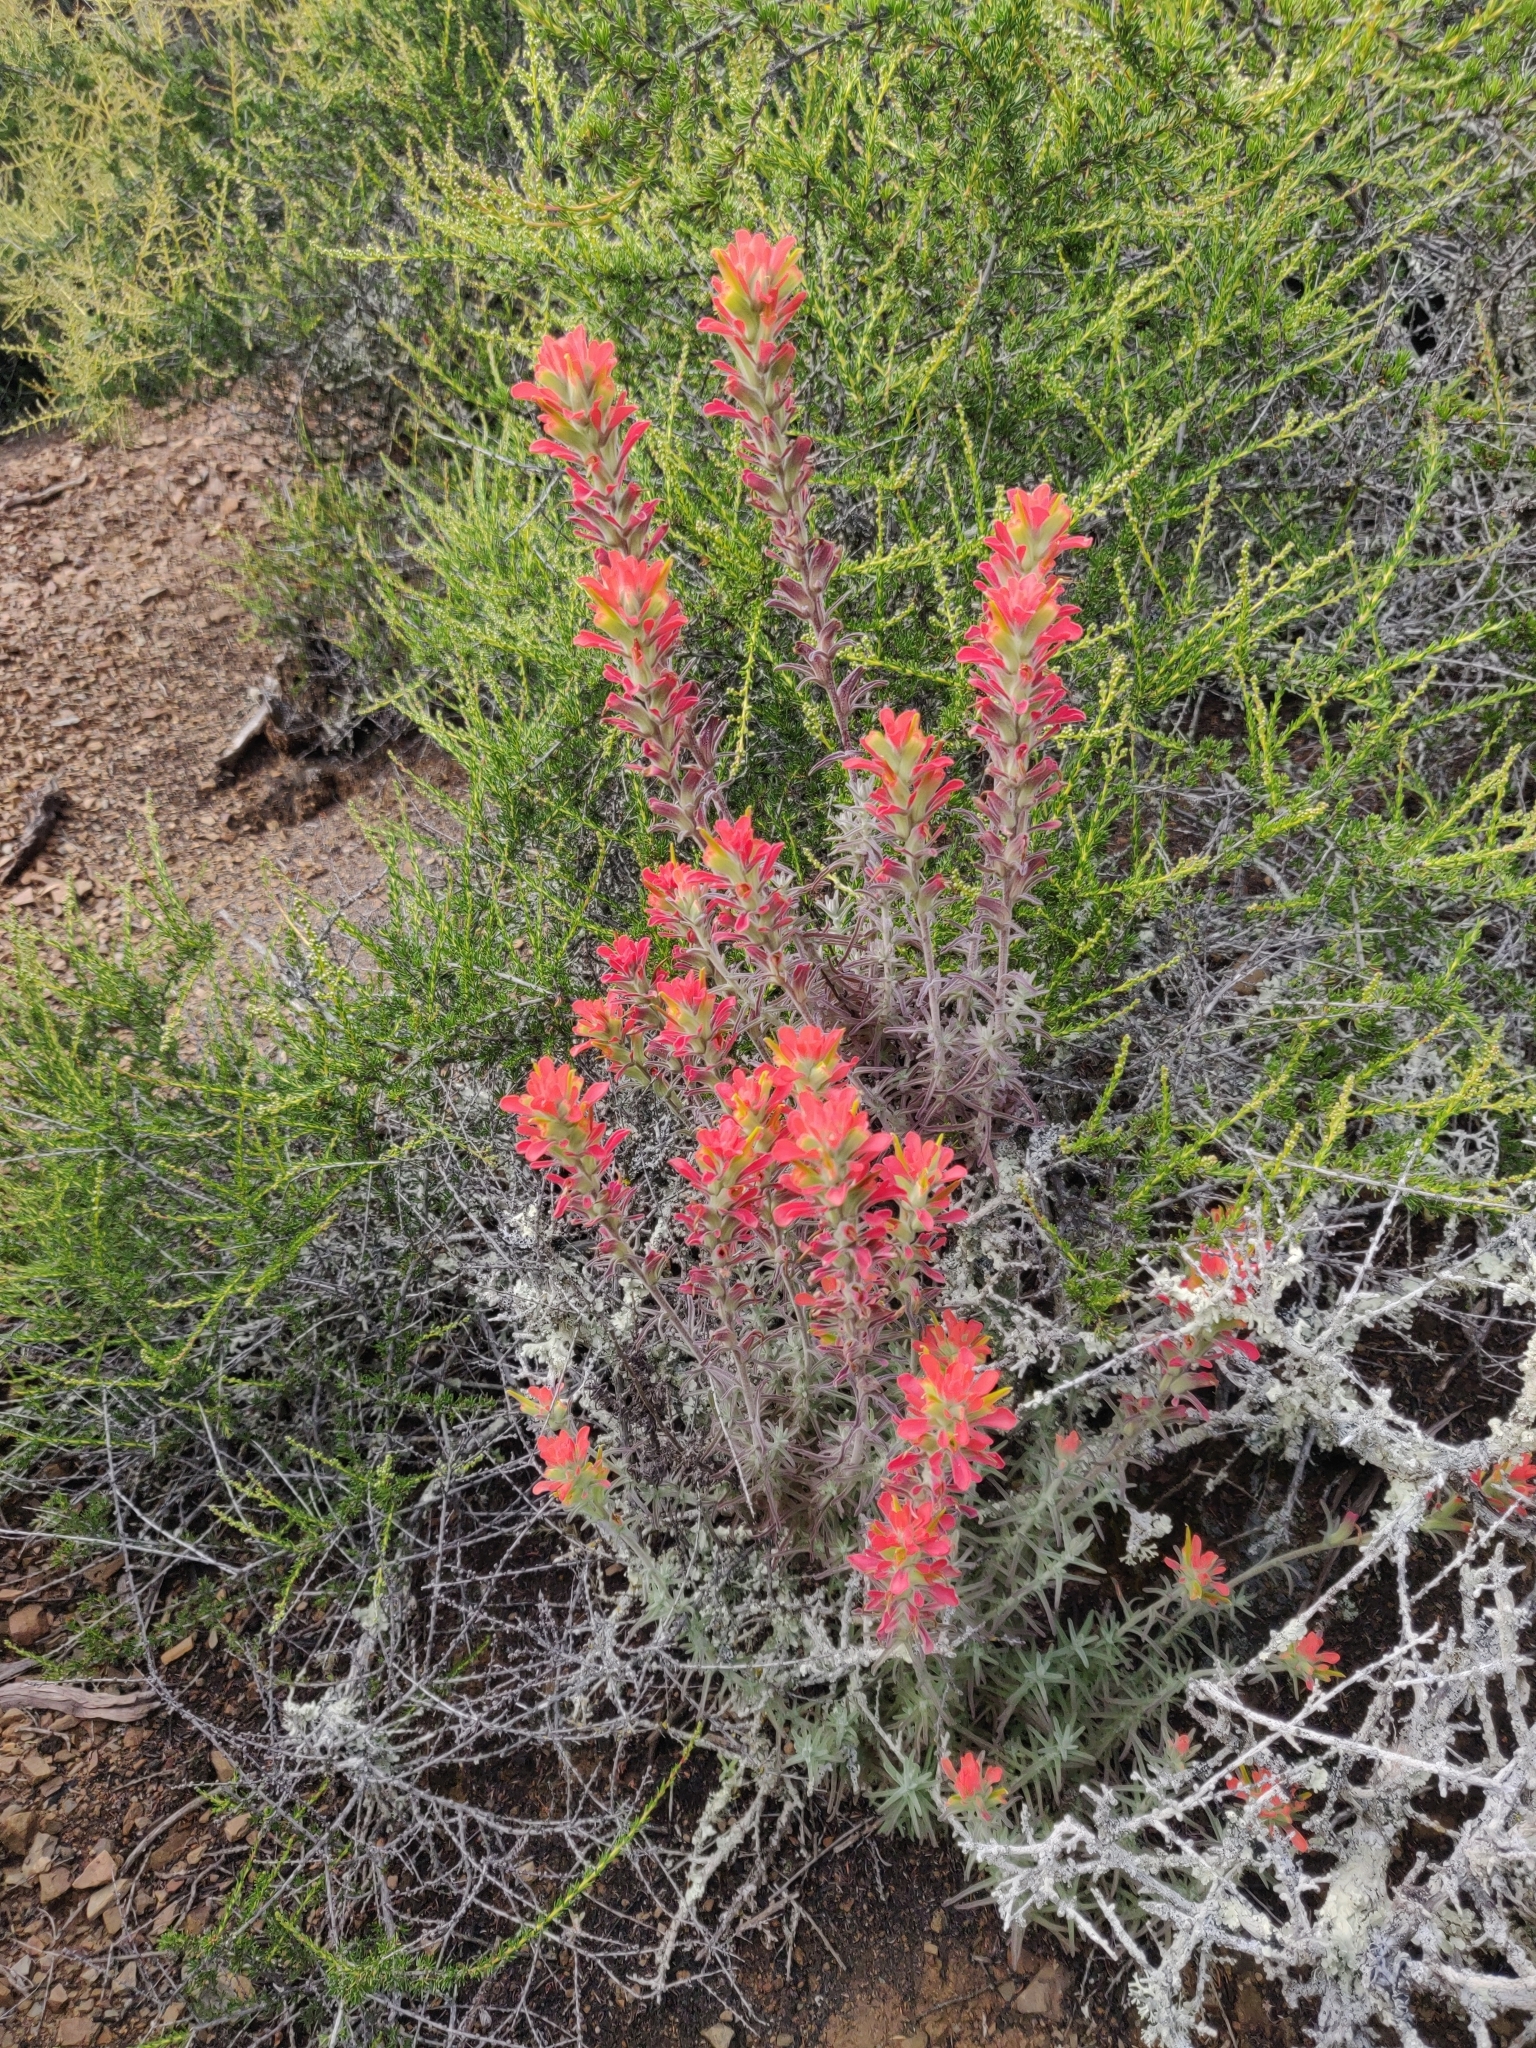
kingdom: Plantae
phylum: Tracheophyta
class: Magnoliopsida
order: Lamiales
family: Orobanchaceae
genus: Castilleja
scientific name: Castilleja foliolosa
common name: Woolly indian paintbrush
